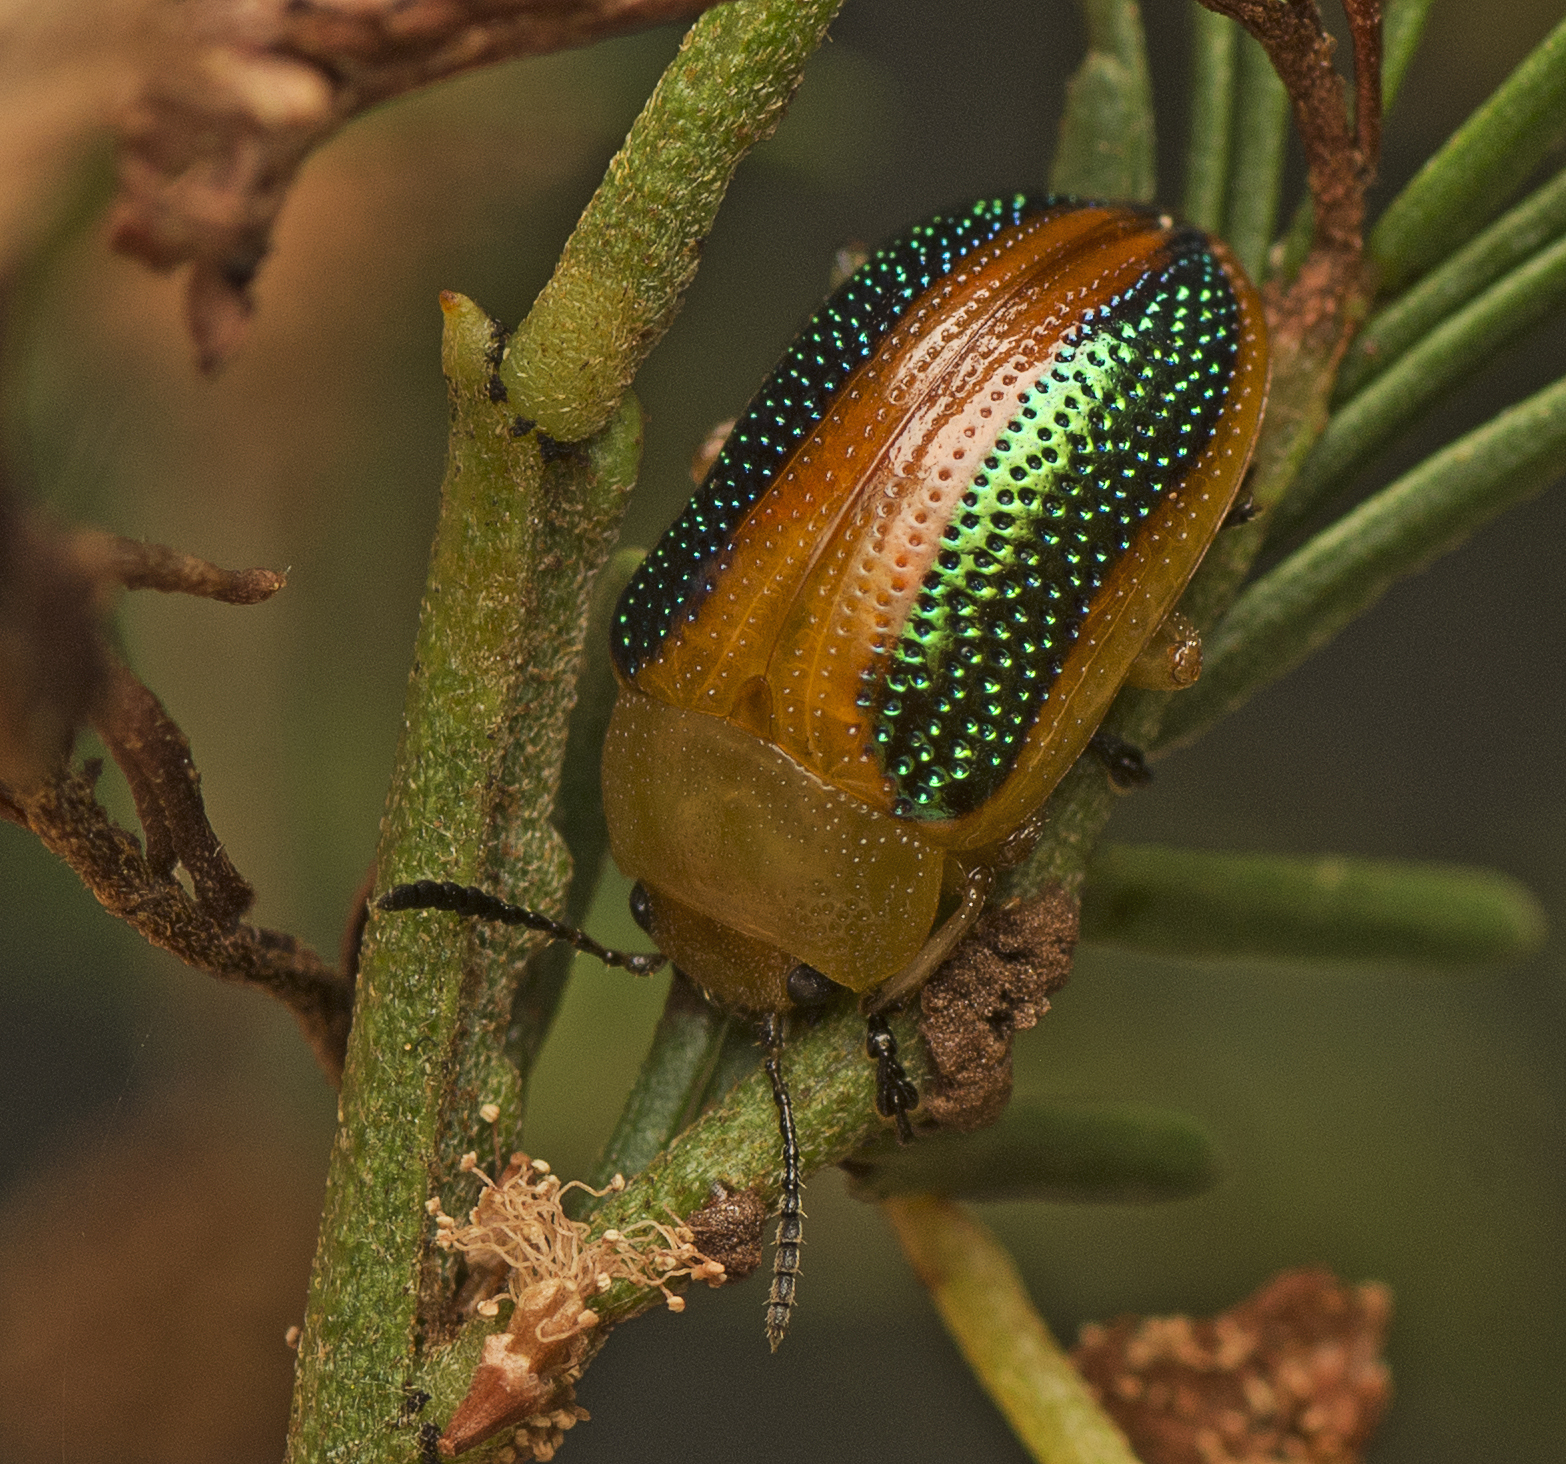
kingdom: Animalia
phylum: Arthropoda
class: Insecta
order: Coleoptera
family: Chrysomelidae
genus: Calomela
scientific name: Calomela
